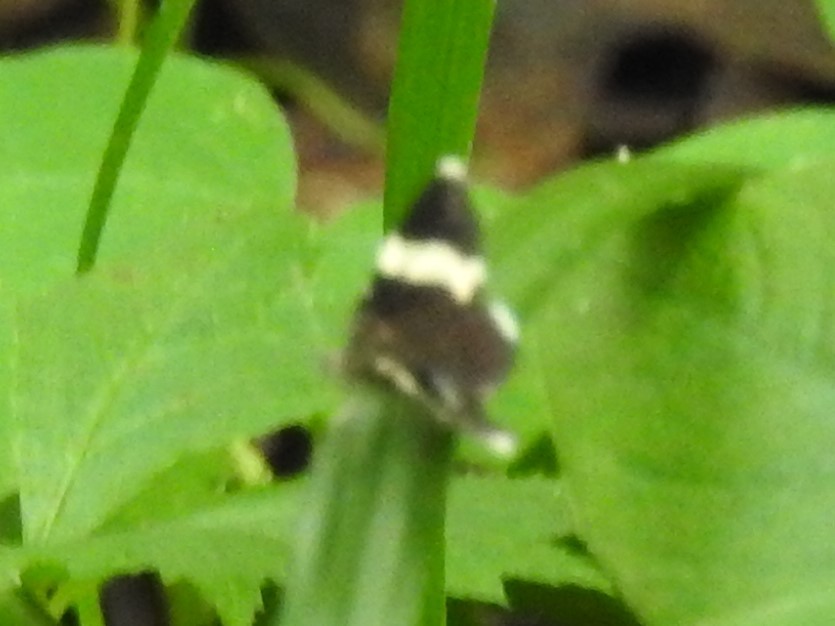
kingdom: Animalia
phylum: Arthropoda
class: Insecta
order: Lepidoptera
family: Geometridae
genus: Trichodezia
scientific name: Trichodezia albovittata
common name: White striped black
